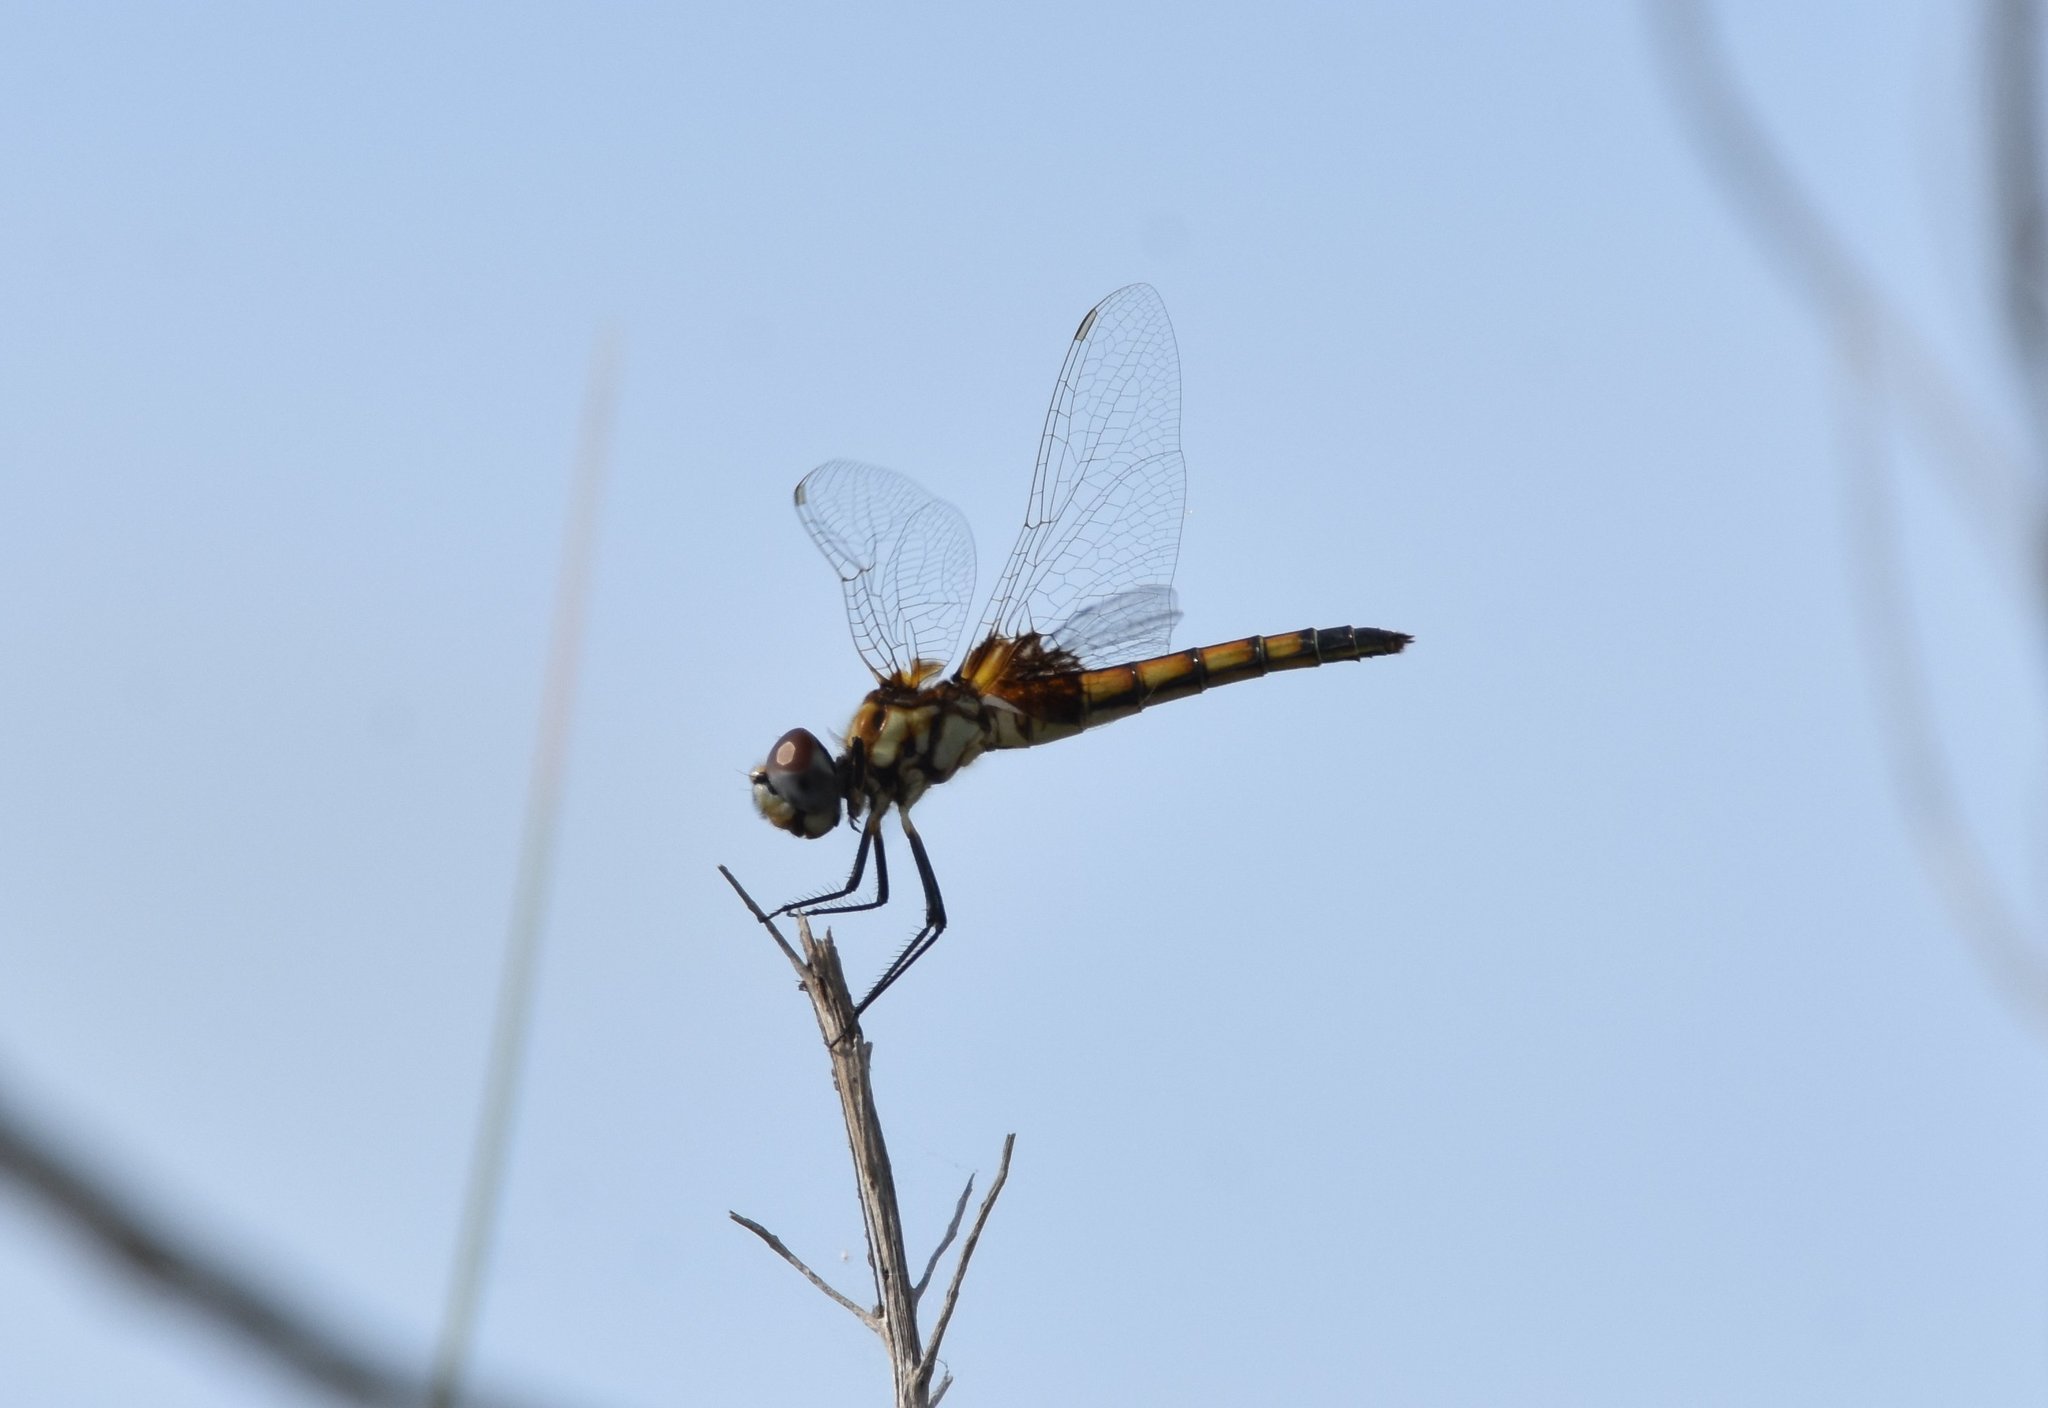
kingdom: Animalia
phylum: Arthropoda
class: Insecta
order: Odonata
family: Libellulidae
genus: Macrodiplax
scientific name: Macrodiplax balteata
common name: Marl pennant
